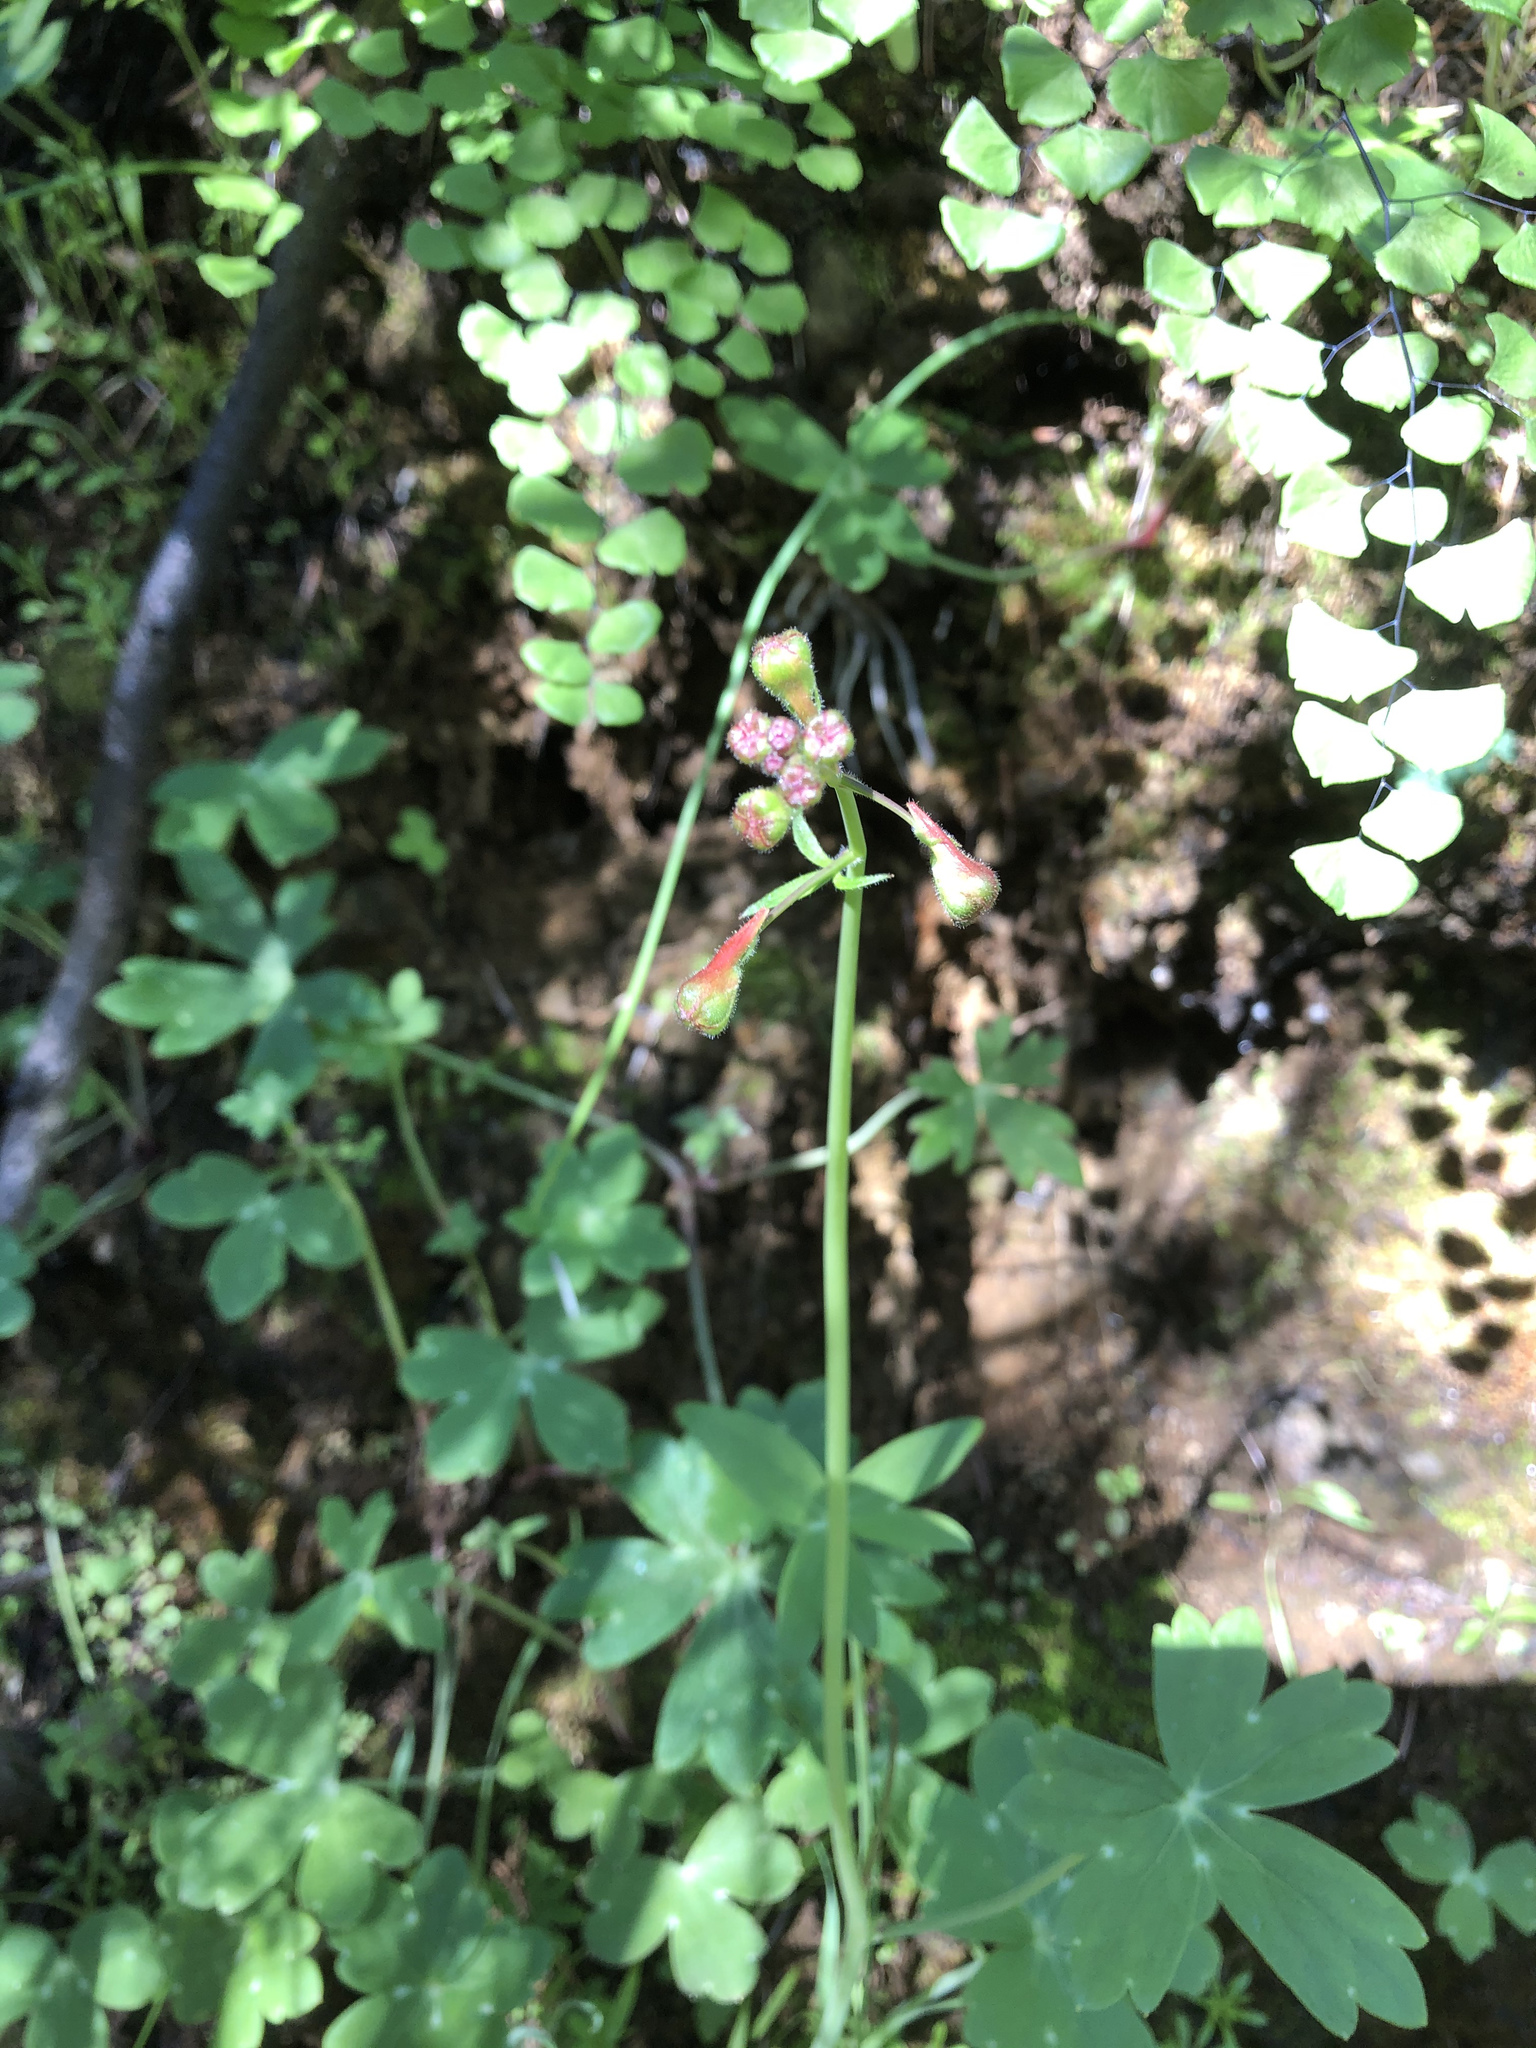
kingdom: Plantae
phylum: Tracheophyta
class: Magnoliopsida
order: Ranunculales
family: Ranunculaceae
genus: Delphinium
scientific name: Delphinium nudicaule
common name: Red larkspur
